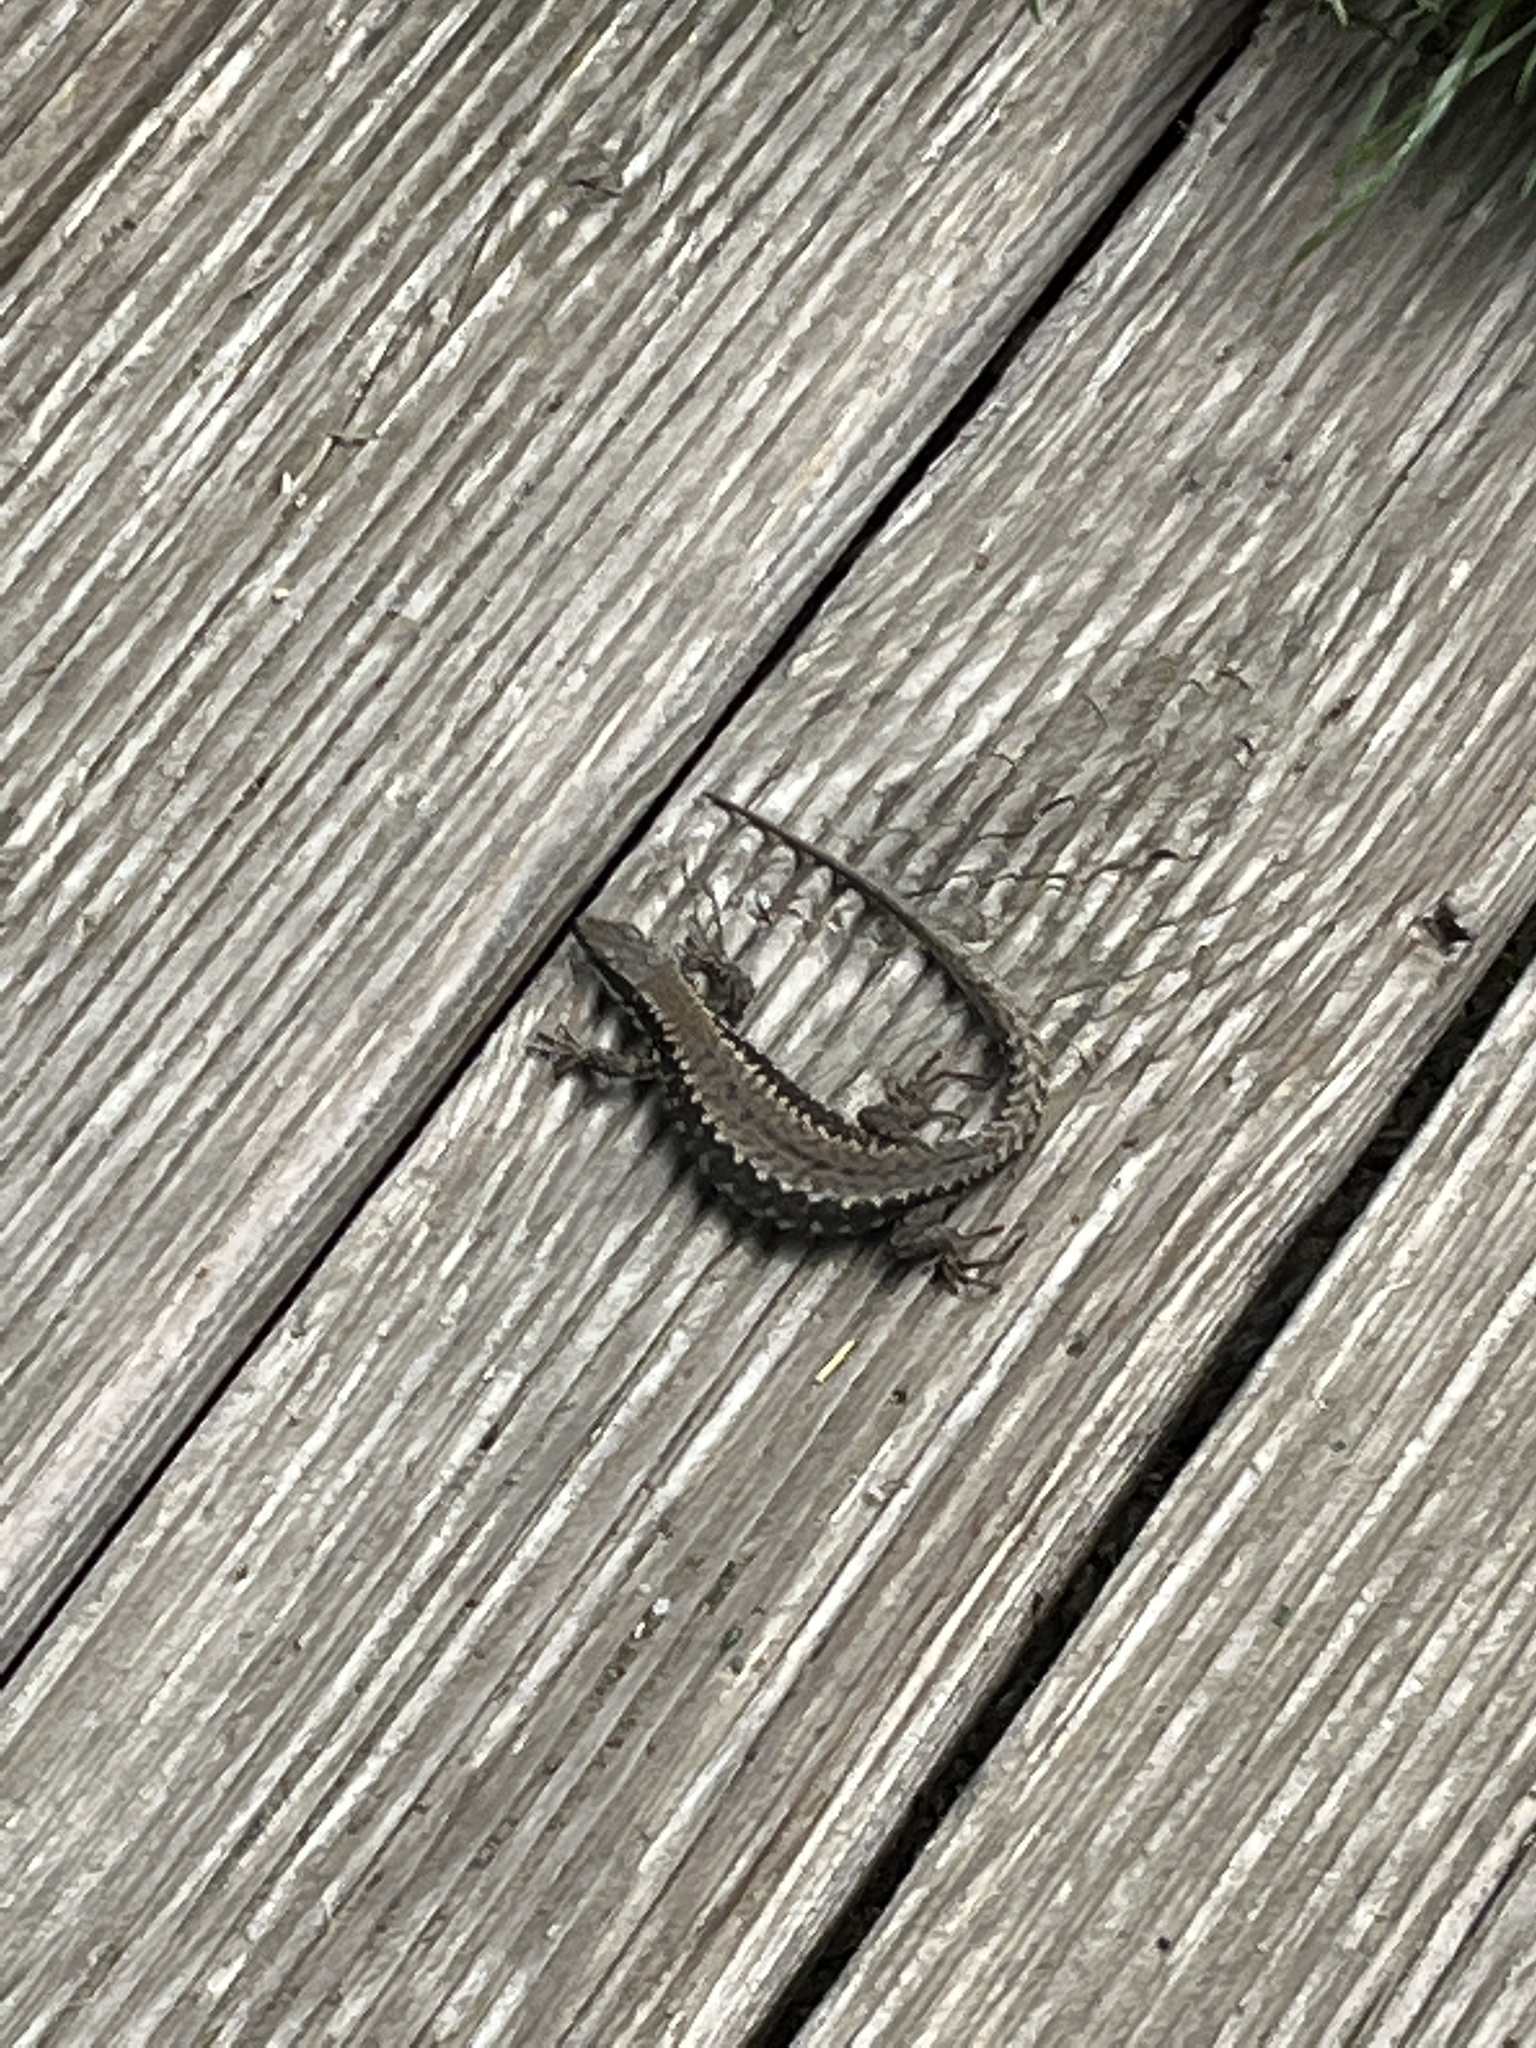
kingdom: Animalia
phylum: Chordata
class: Squamata
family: Lacertidae
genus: Podarcis
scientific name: Podarcis muralis
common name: Common wall lizard
